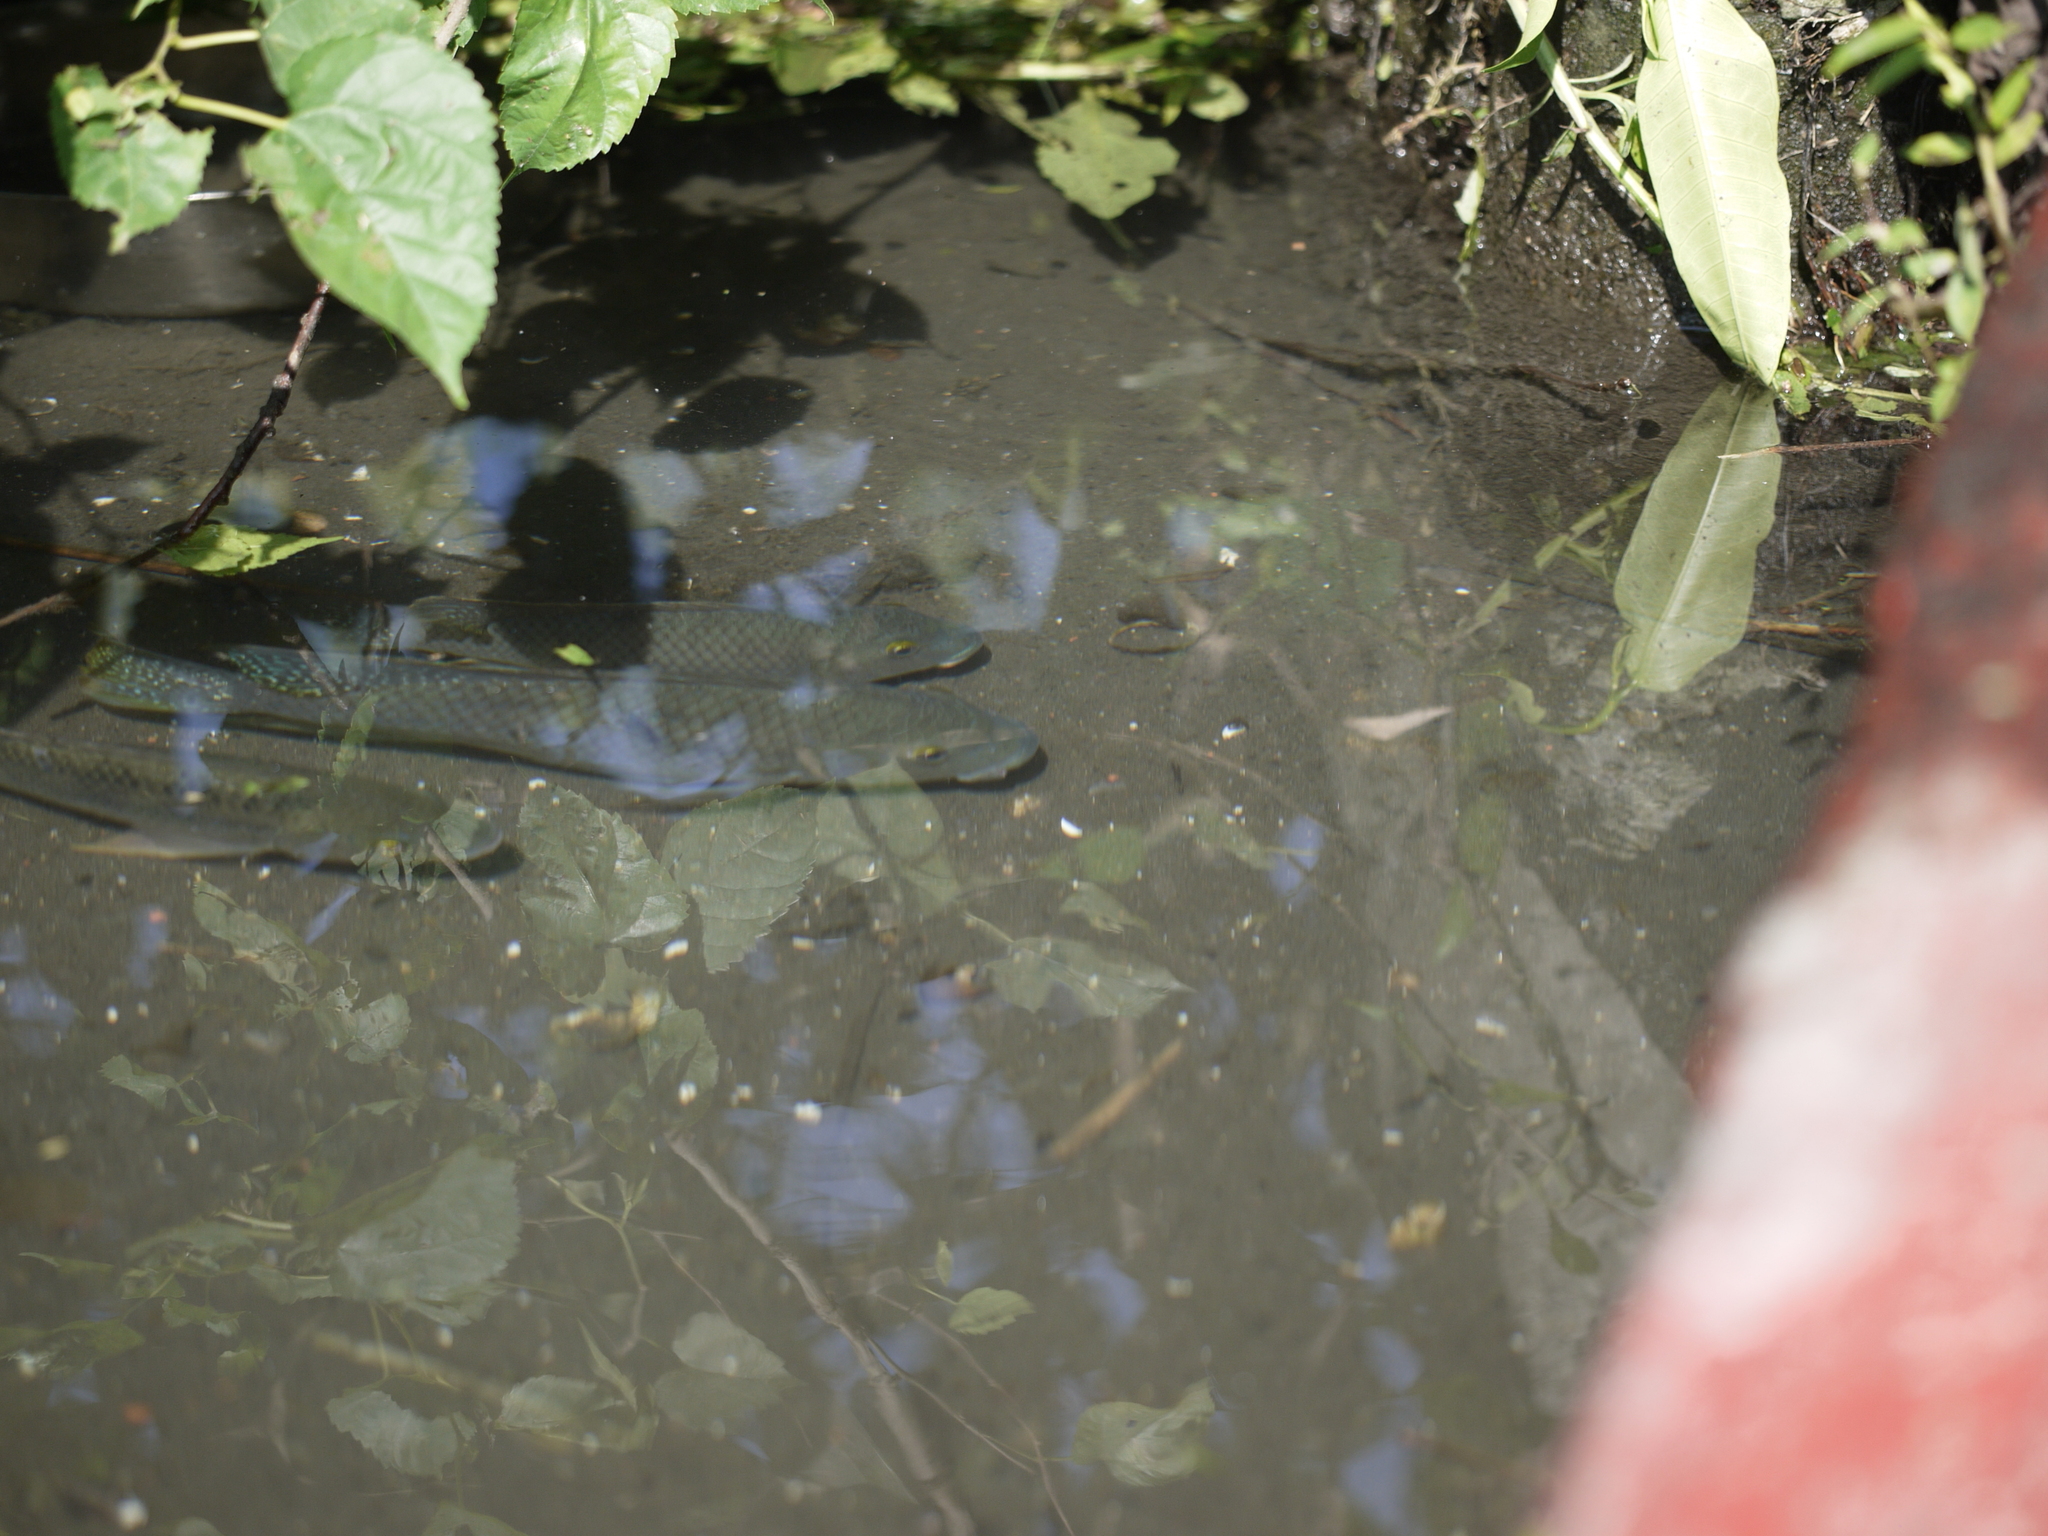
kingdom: Animalia
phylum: Chordata
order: Perciformes
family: Cichlidae
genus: Geophagus
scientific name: Geophagus brasiliensis
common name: Braziliensis
